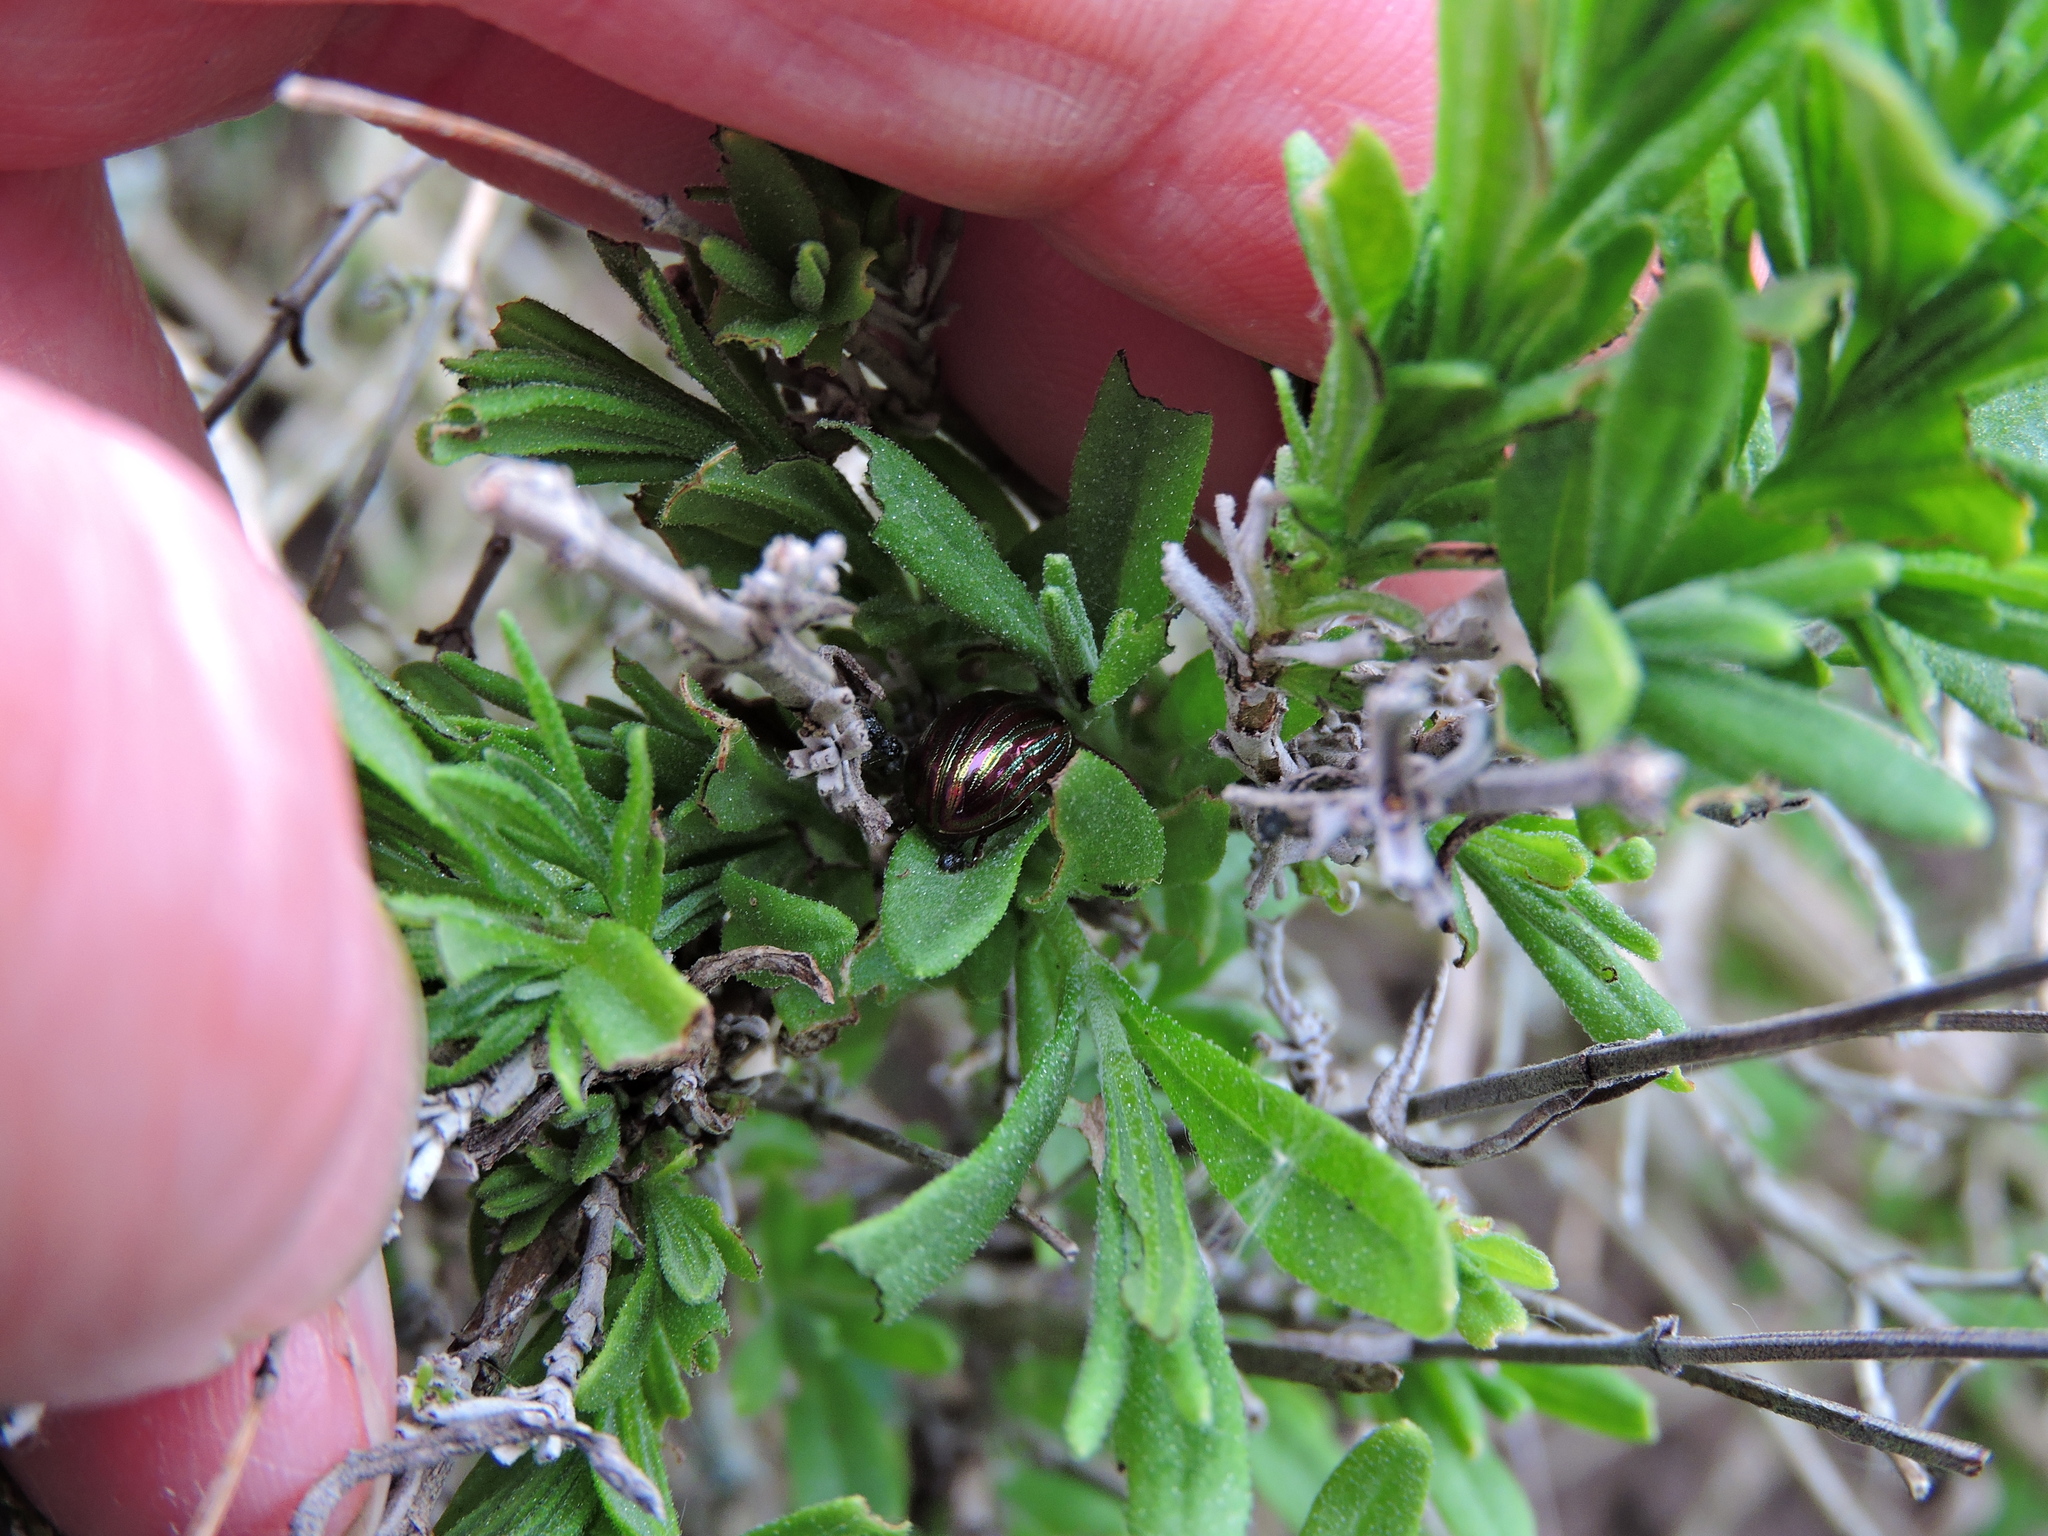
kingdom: Animalia
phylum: Arthropoda
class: Insecta
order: Coleoptera
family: Chrysomelidae
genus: Chrysolina
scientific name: Chrysolina americana
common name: Rosemary beetle
